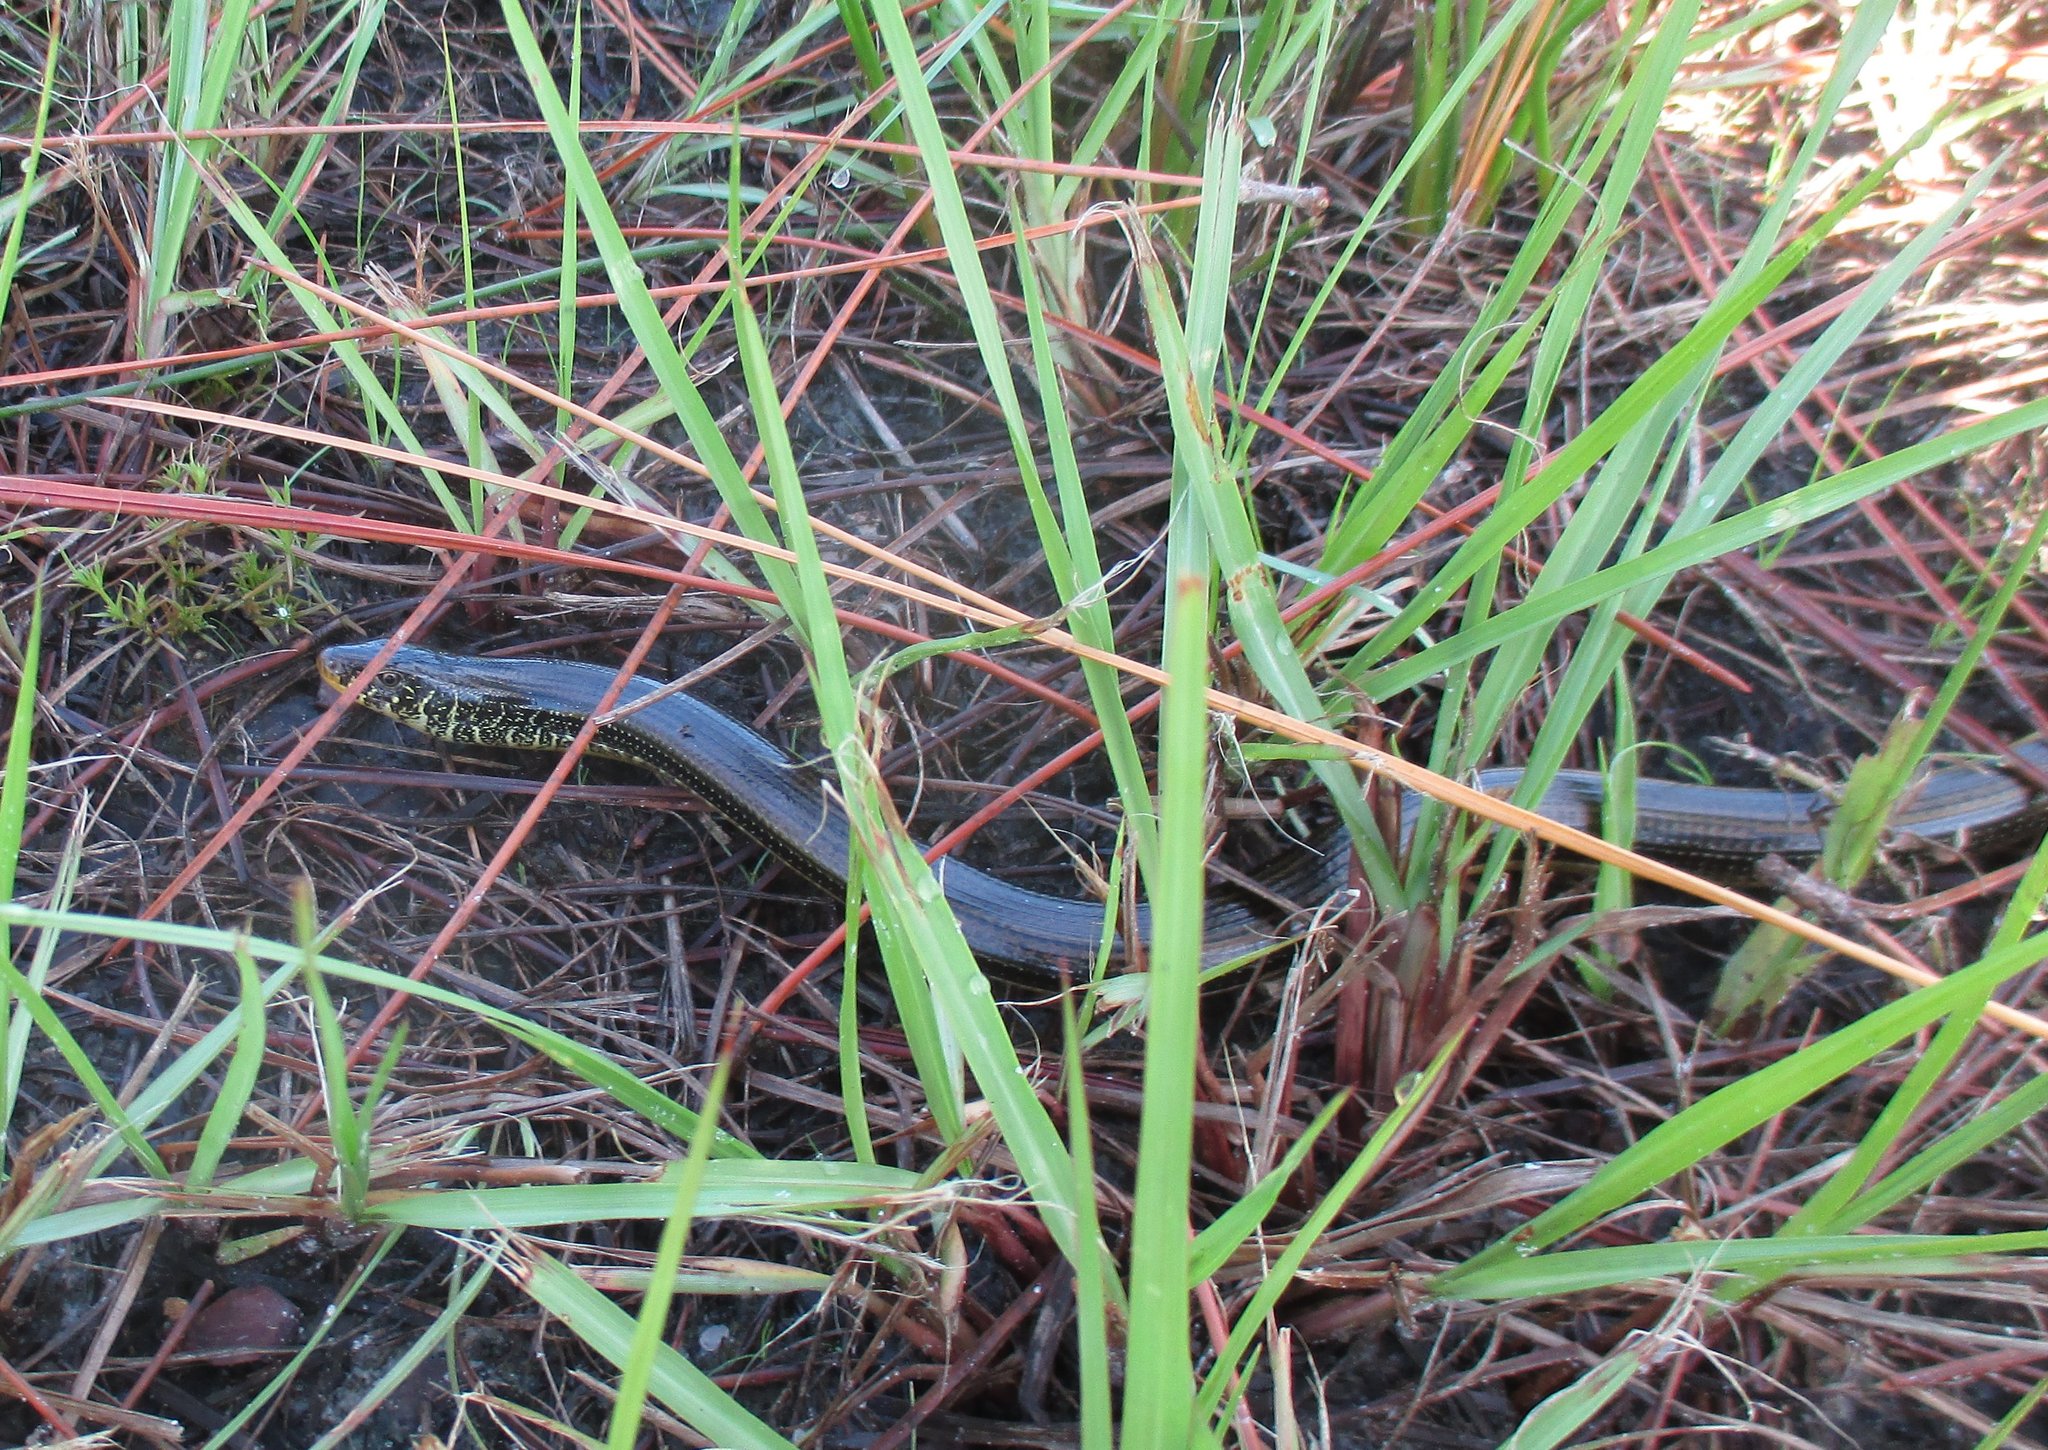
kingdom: Animalia
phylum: Chordata
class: Squamata
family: Anguidae
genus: Ophisaurus
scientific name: Ophisaurus ventralis
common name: Eastern glass lizard
